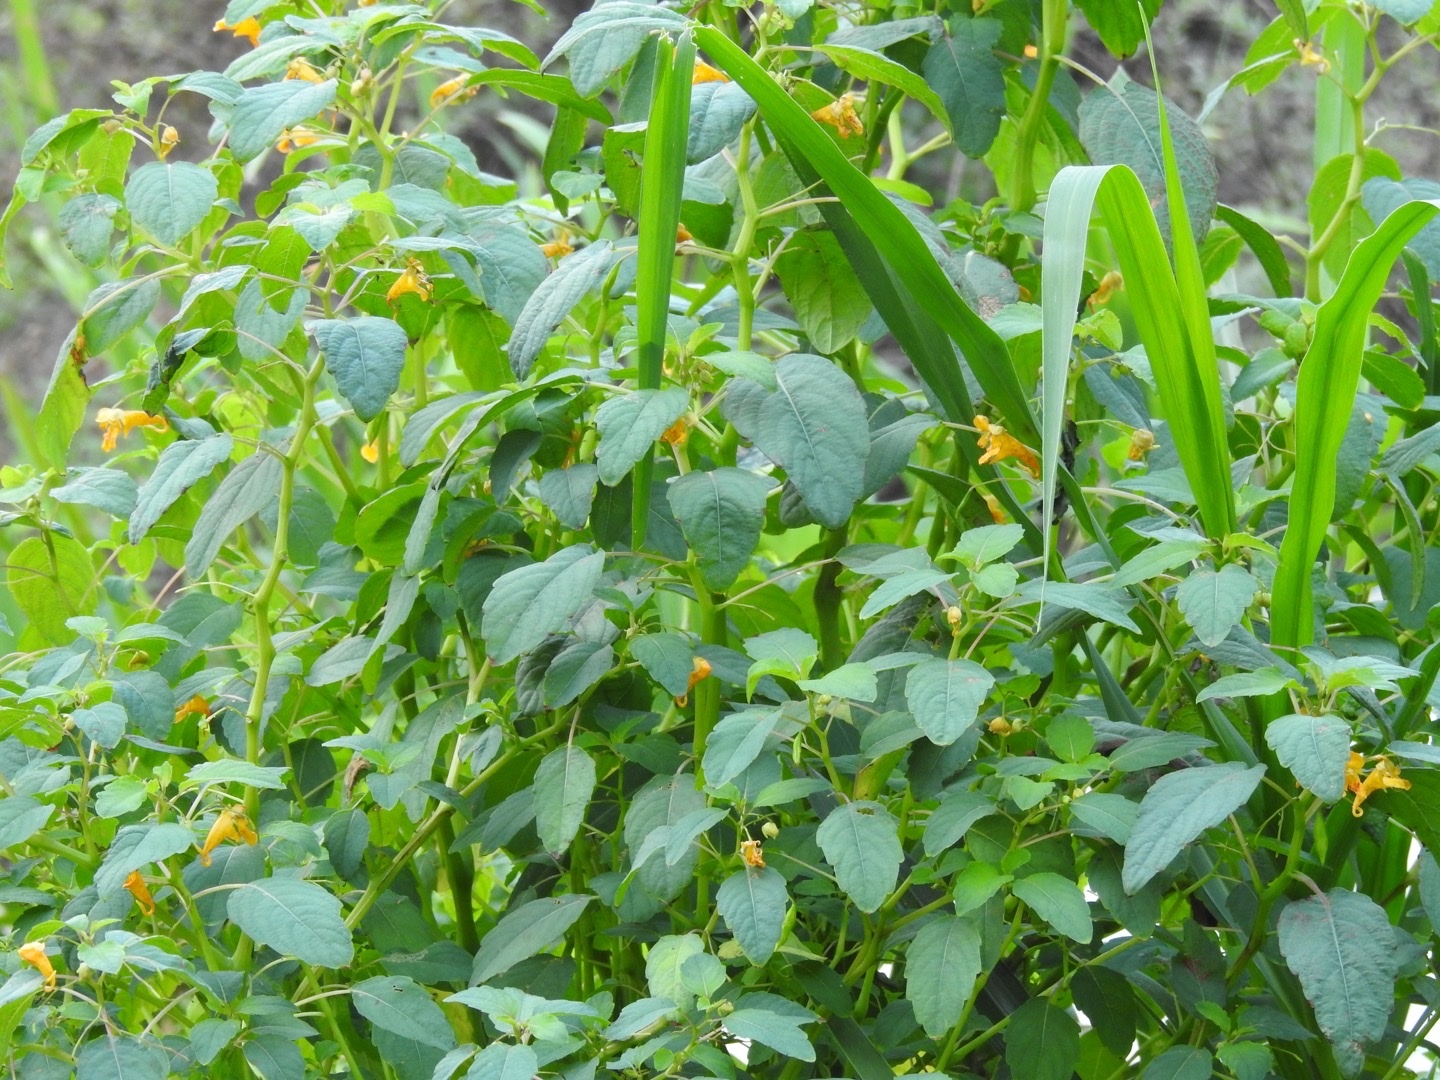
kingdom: Plantae
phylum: Tracheophyta
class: Magnoliopsida
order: Ericales
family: Balsaminaceae
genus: Impatiens
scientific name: Impatiens capensis
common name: Orange balsam
